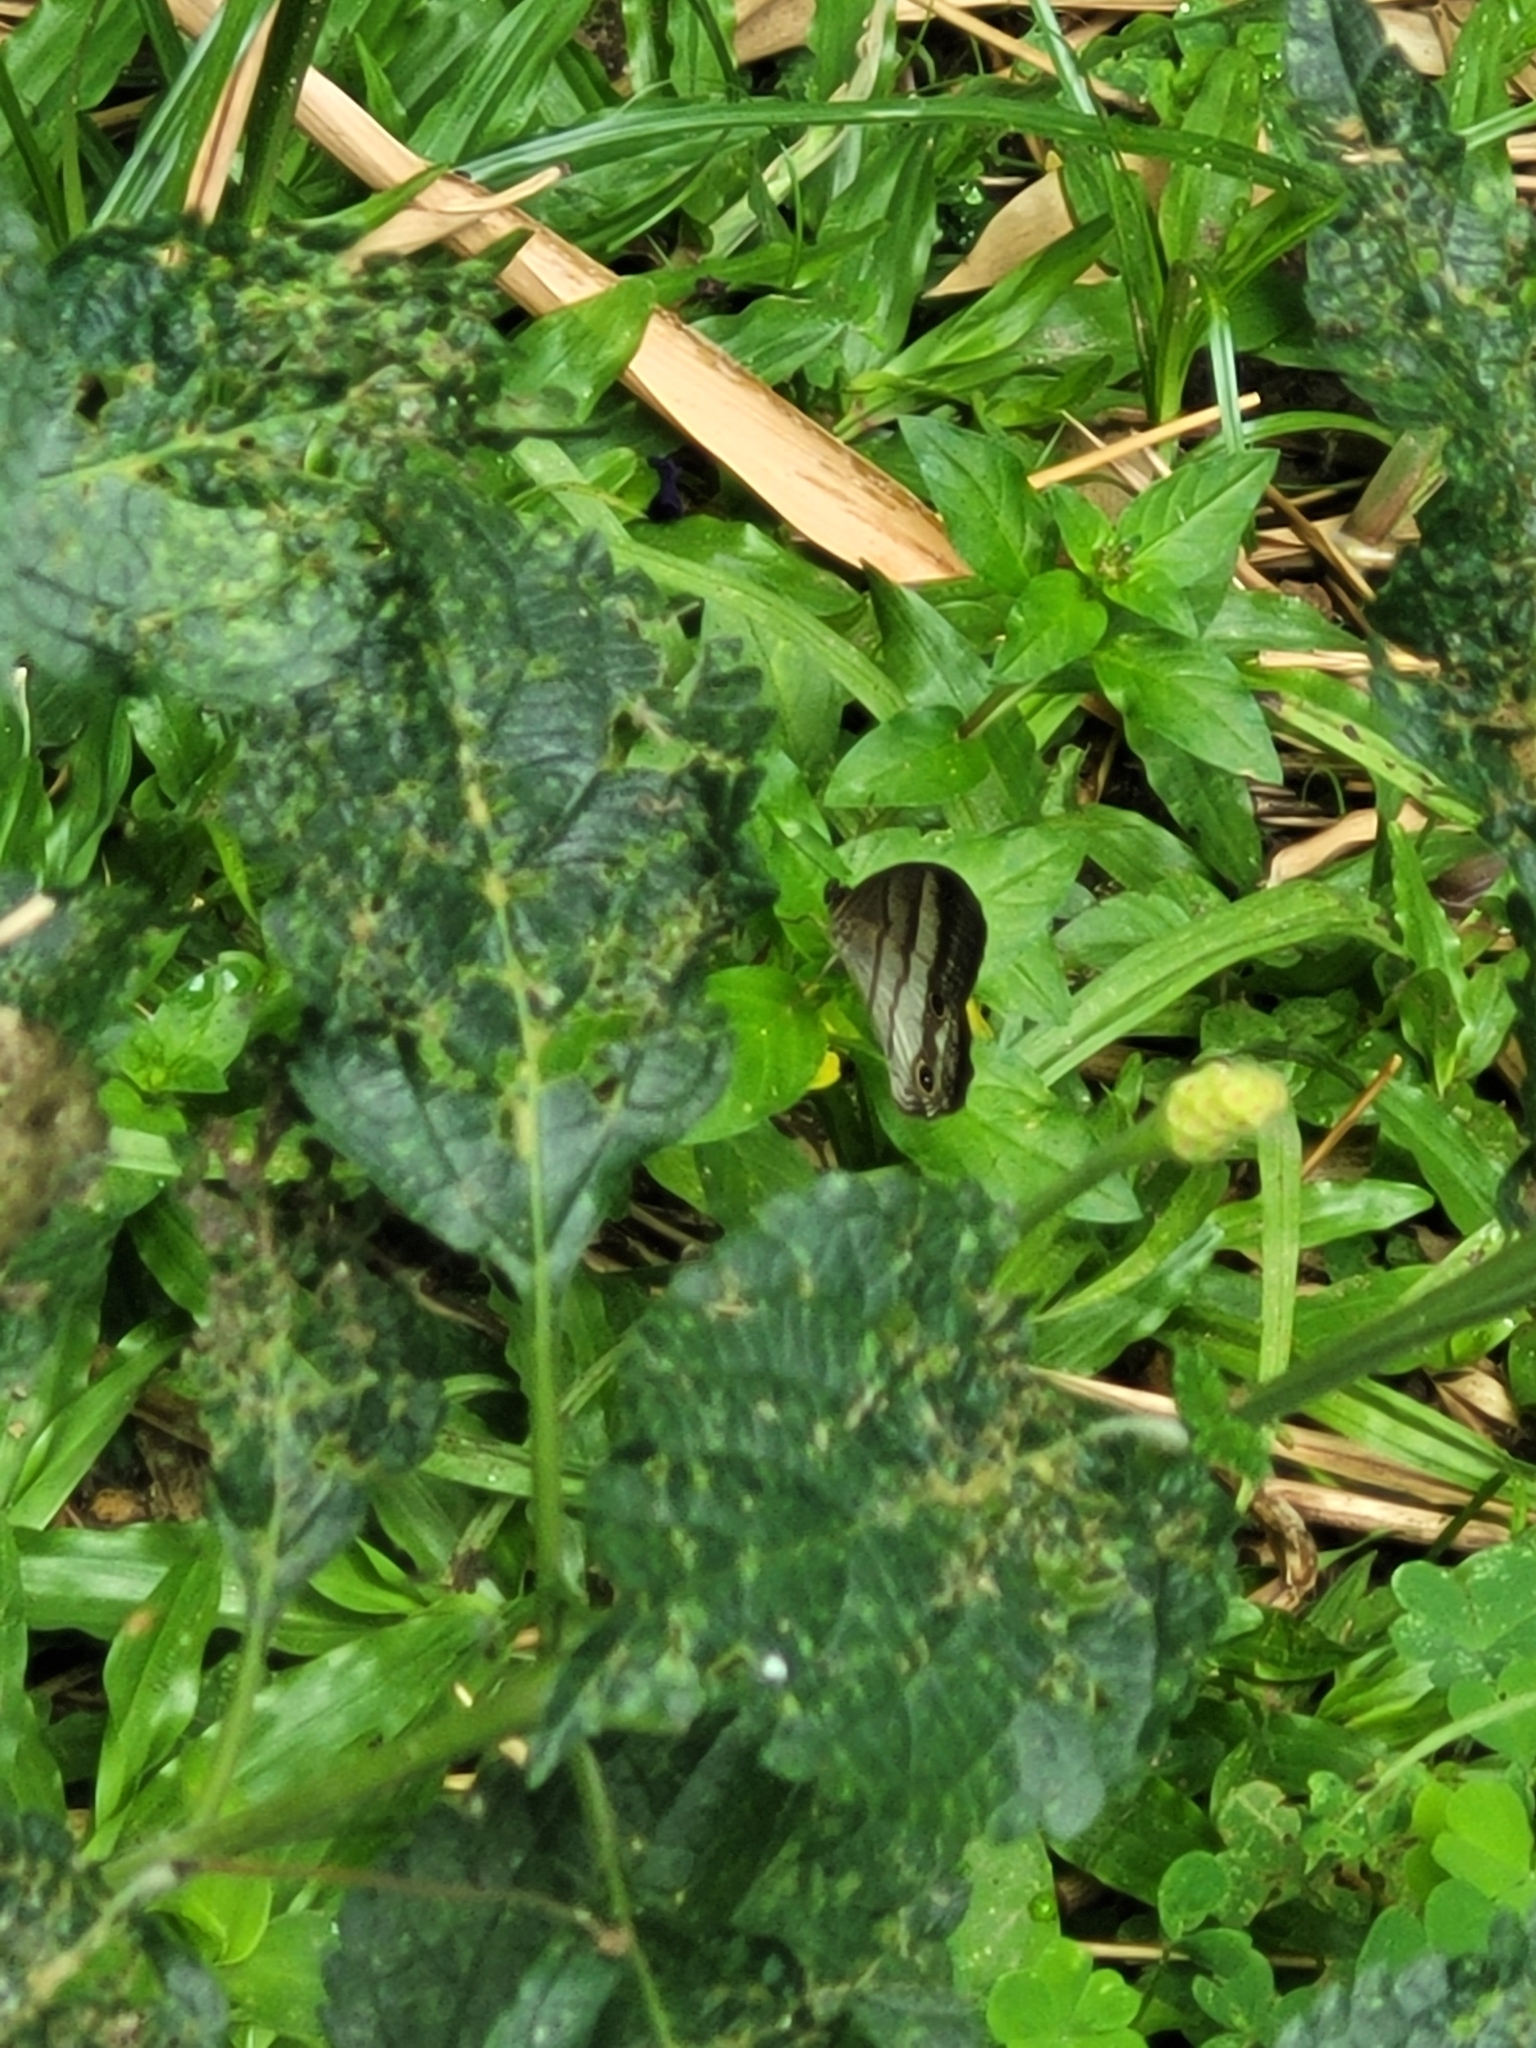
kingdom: Animalia
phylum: Arthropoda
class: Insecta
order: Lepidoptera
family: Nymphalidae
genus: Euptychoides
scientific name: Euptychoides saturnus
